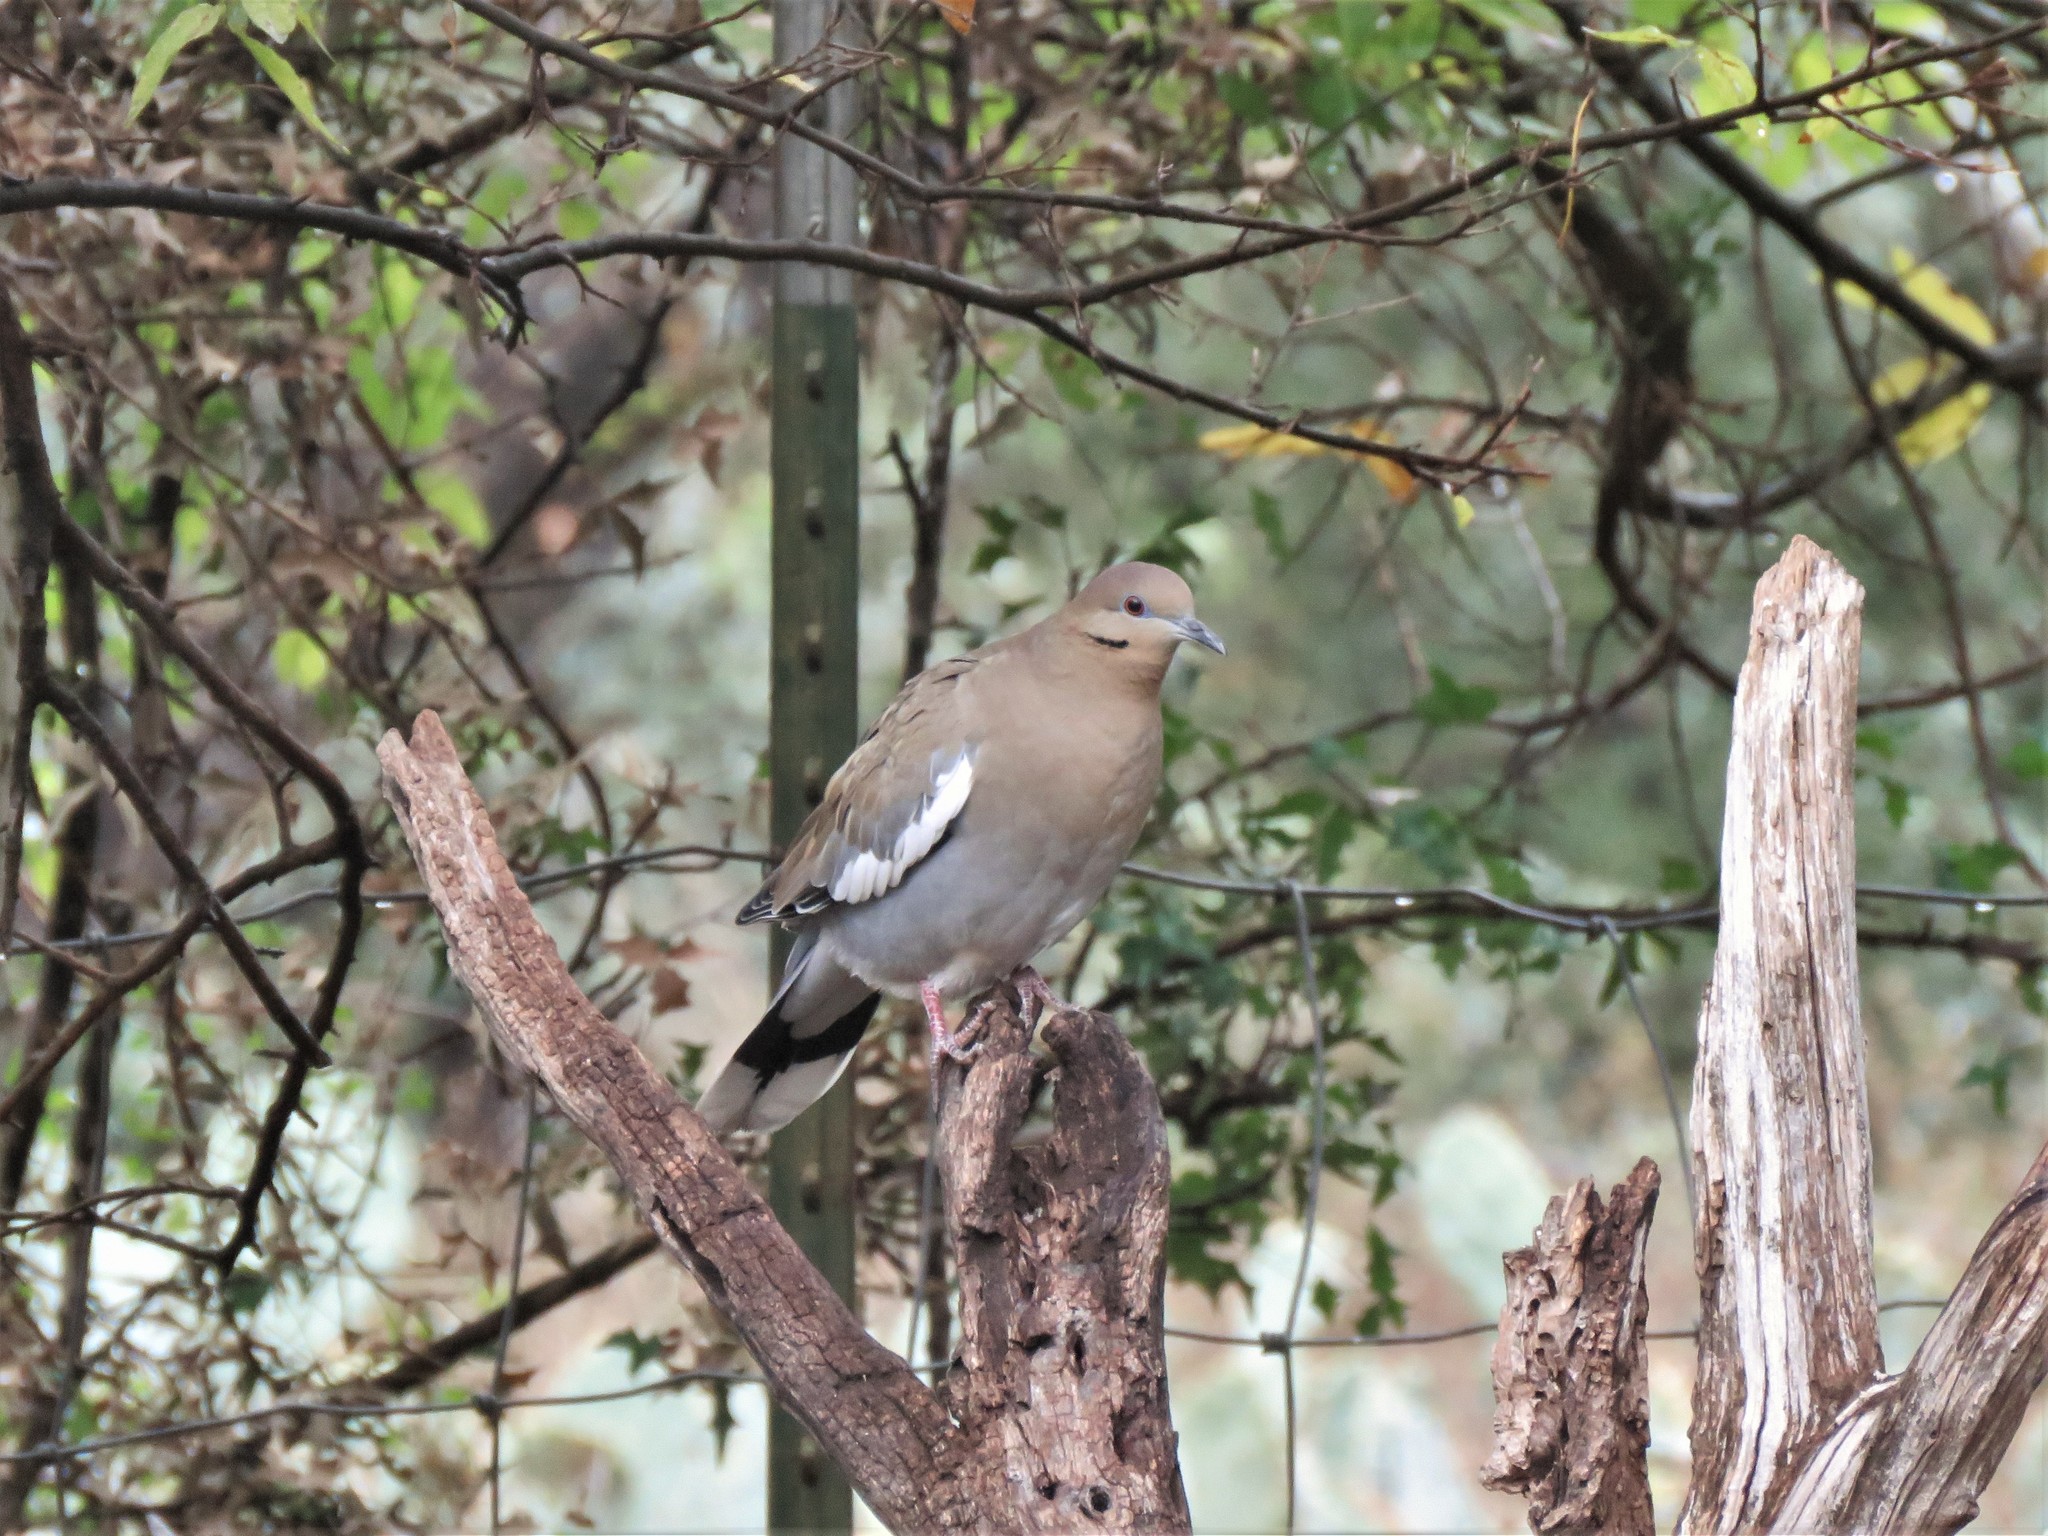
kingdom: Animalia
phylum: Chordata
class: Aves
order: Columbiformes
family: Columbidae
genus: Zenaida
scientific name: Zenaida asiatica
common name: White-winged dove
